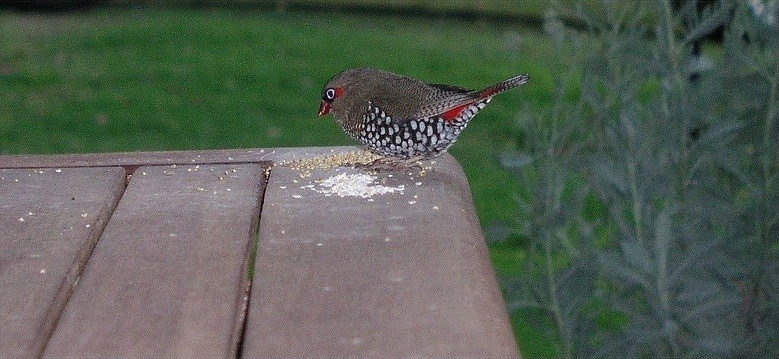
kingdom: Animalia
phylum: Chordata
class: Aves
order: Passeriformes
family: Estrildidae
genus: Stagonopleura
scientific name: Stagonopleura oculata
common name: Red-eared firetail
